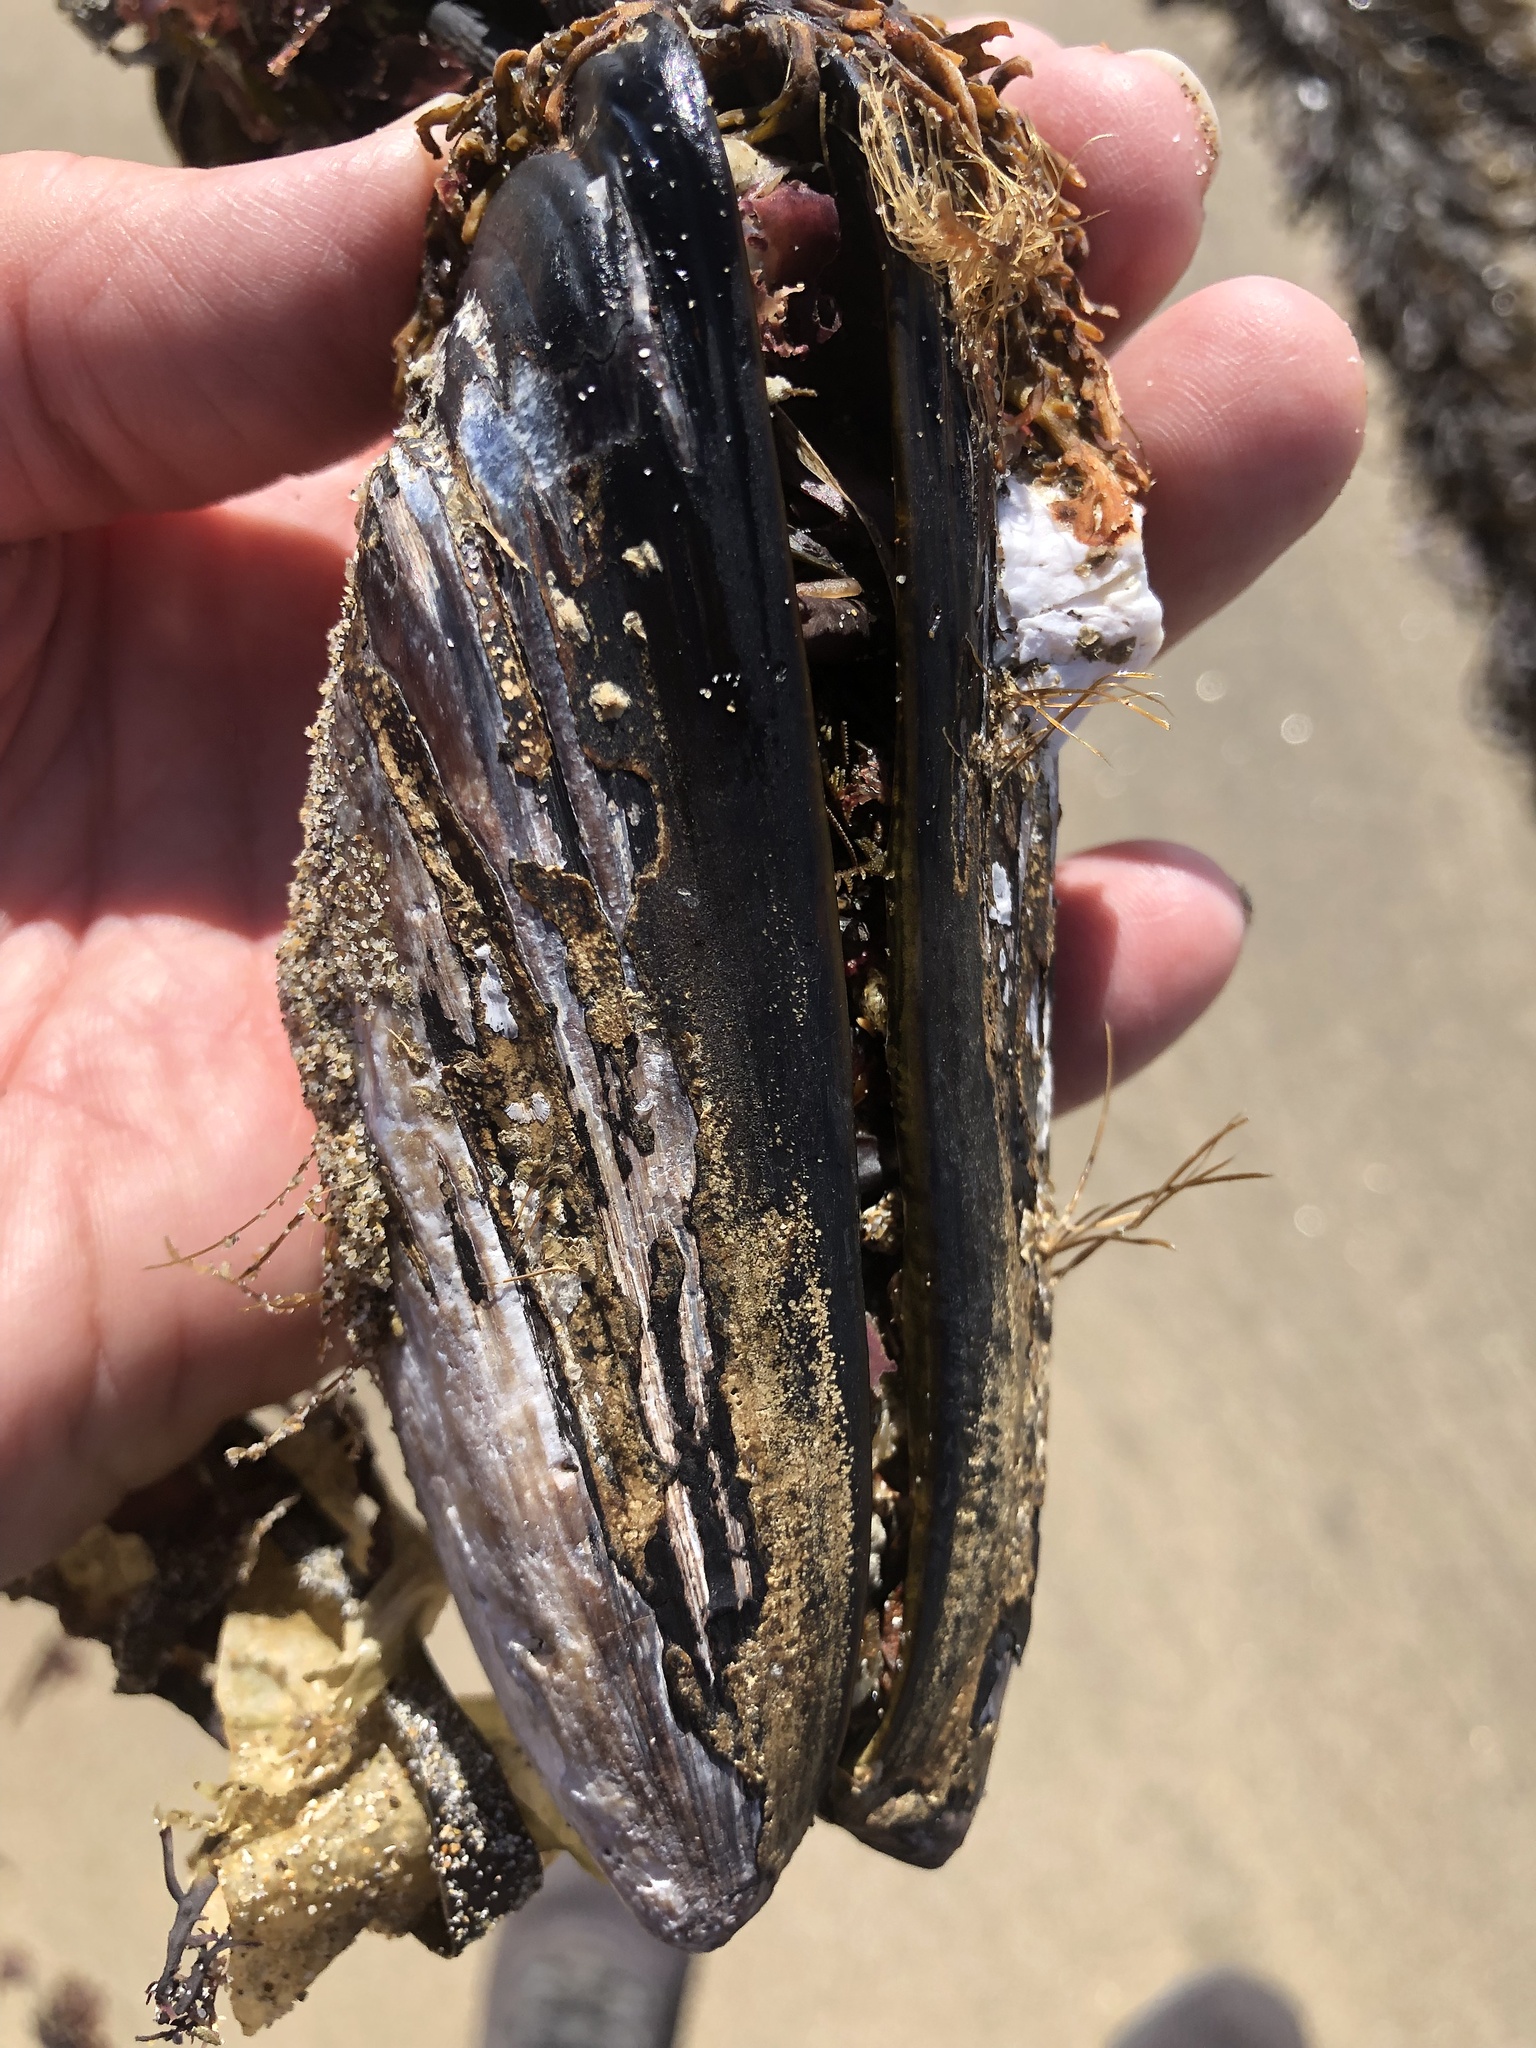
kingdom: Animalia
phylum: Mollusca
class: Bivalvia
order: Mytilida
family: Mytilidae
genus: Mytilus
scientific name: Mytilus californianus
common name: California mussel
